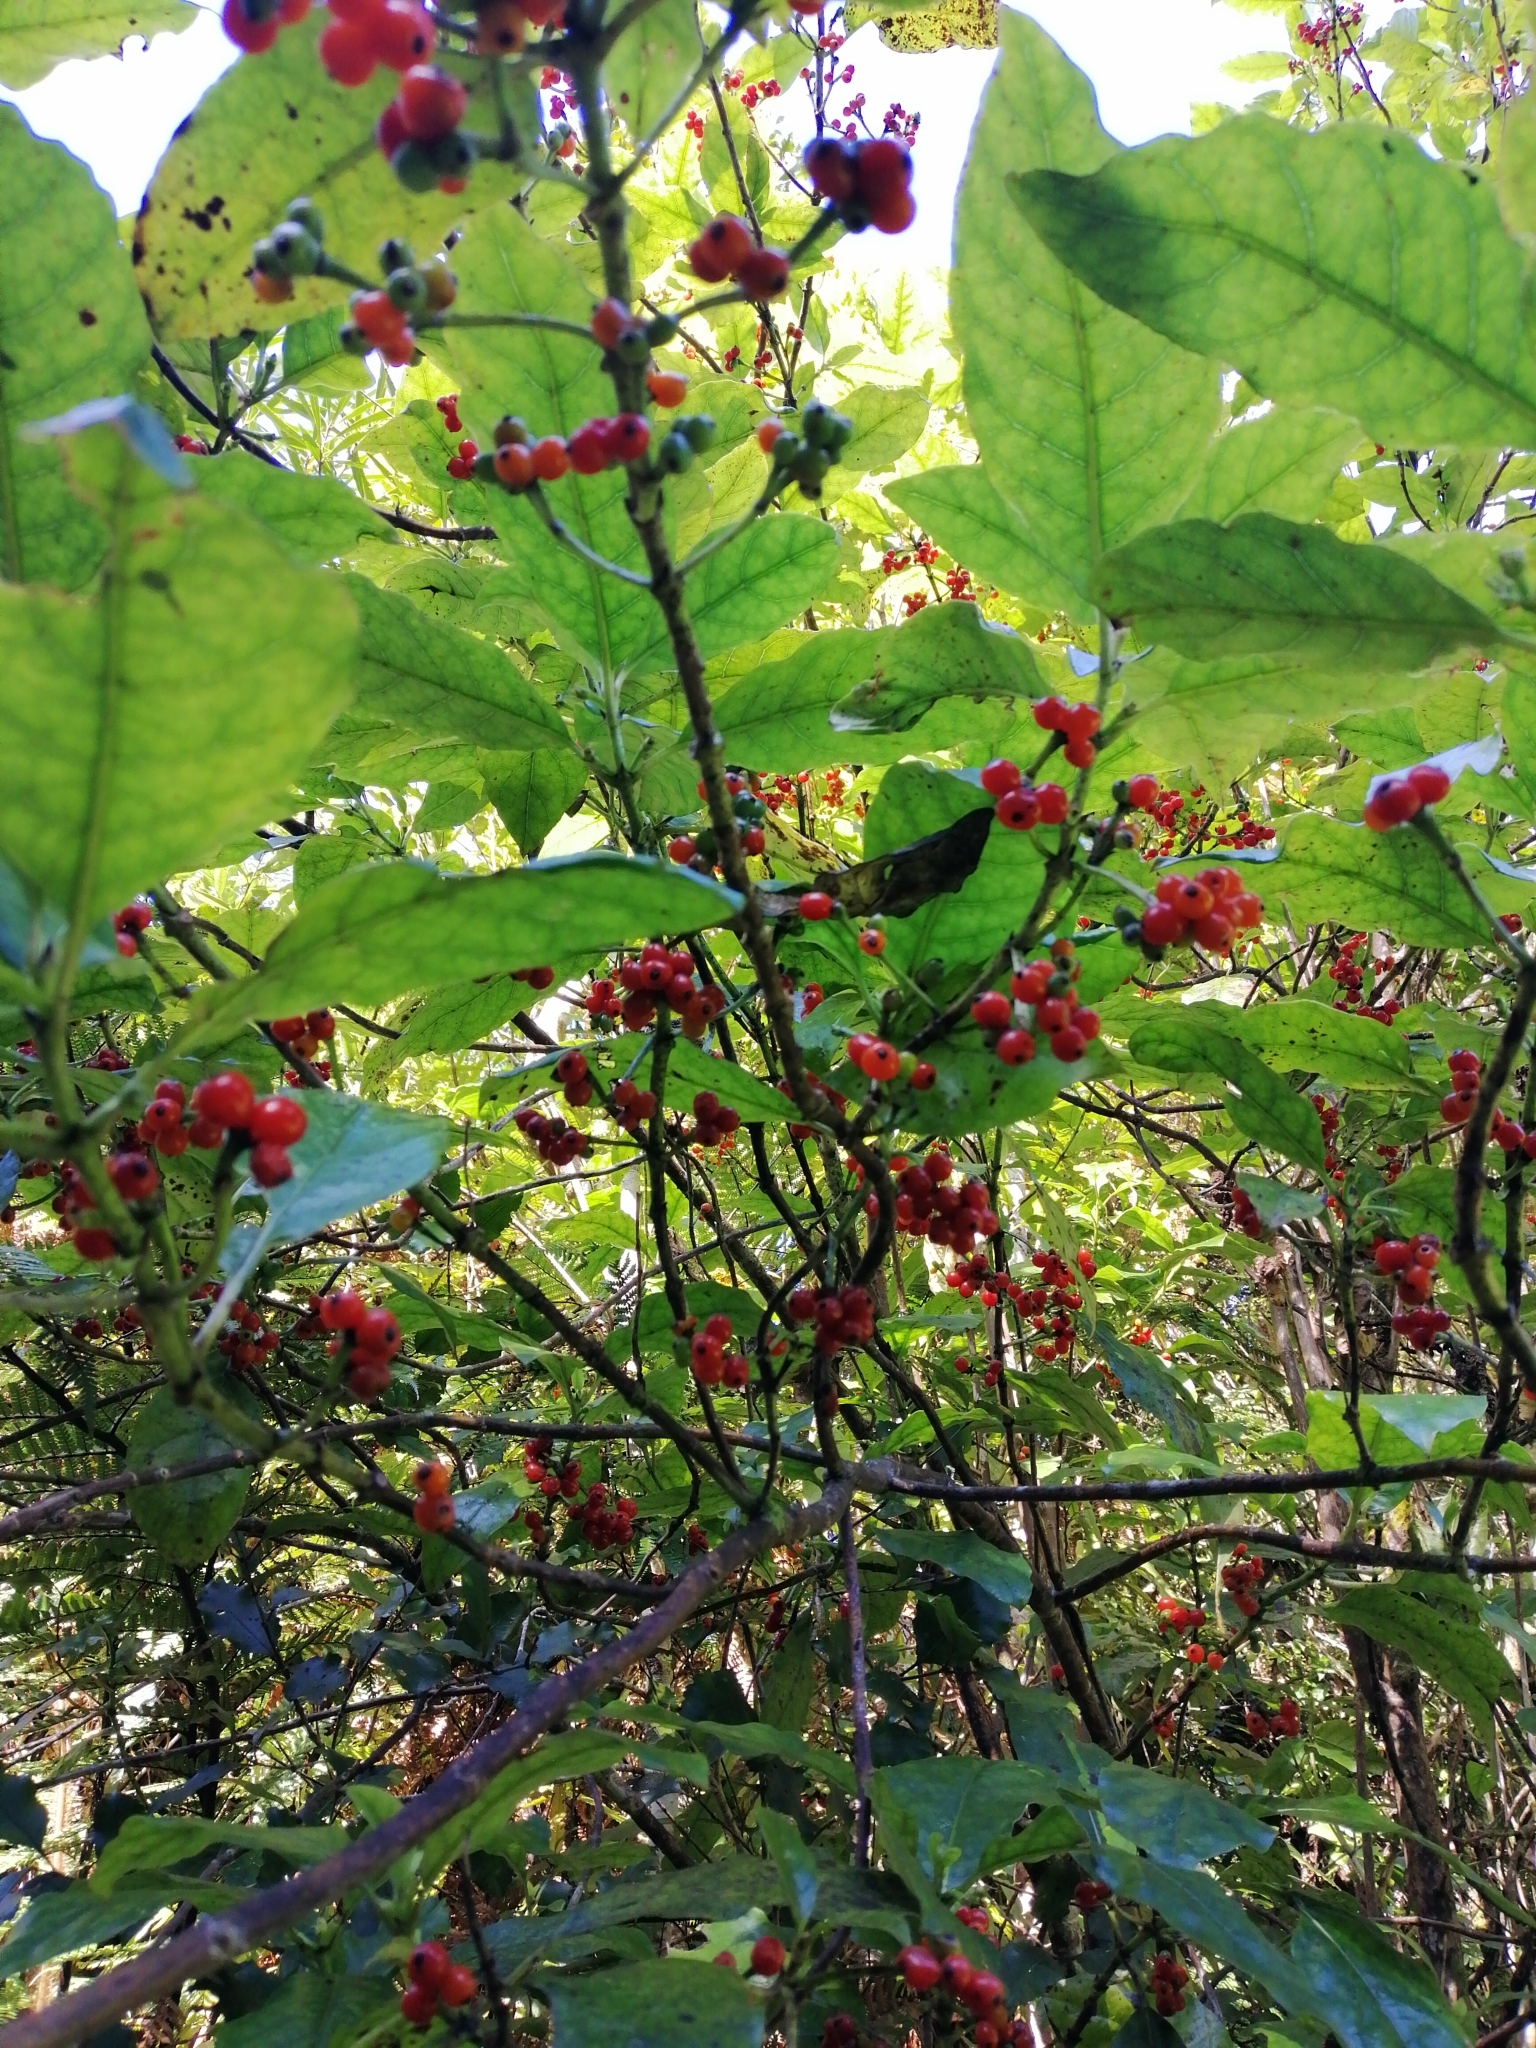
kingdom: Plantae
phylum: Tracheophyta
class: Magnoliopsida
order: Gentianales
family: Rubiaceae
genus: Coprosma
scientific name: Coprosma autumnalis
